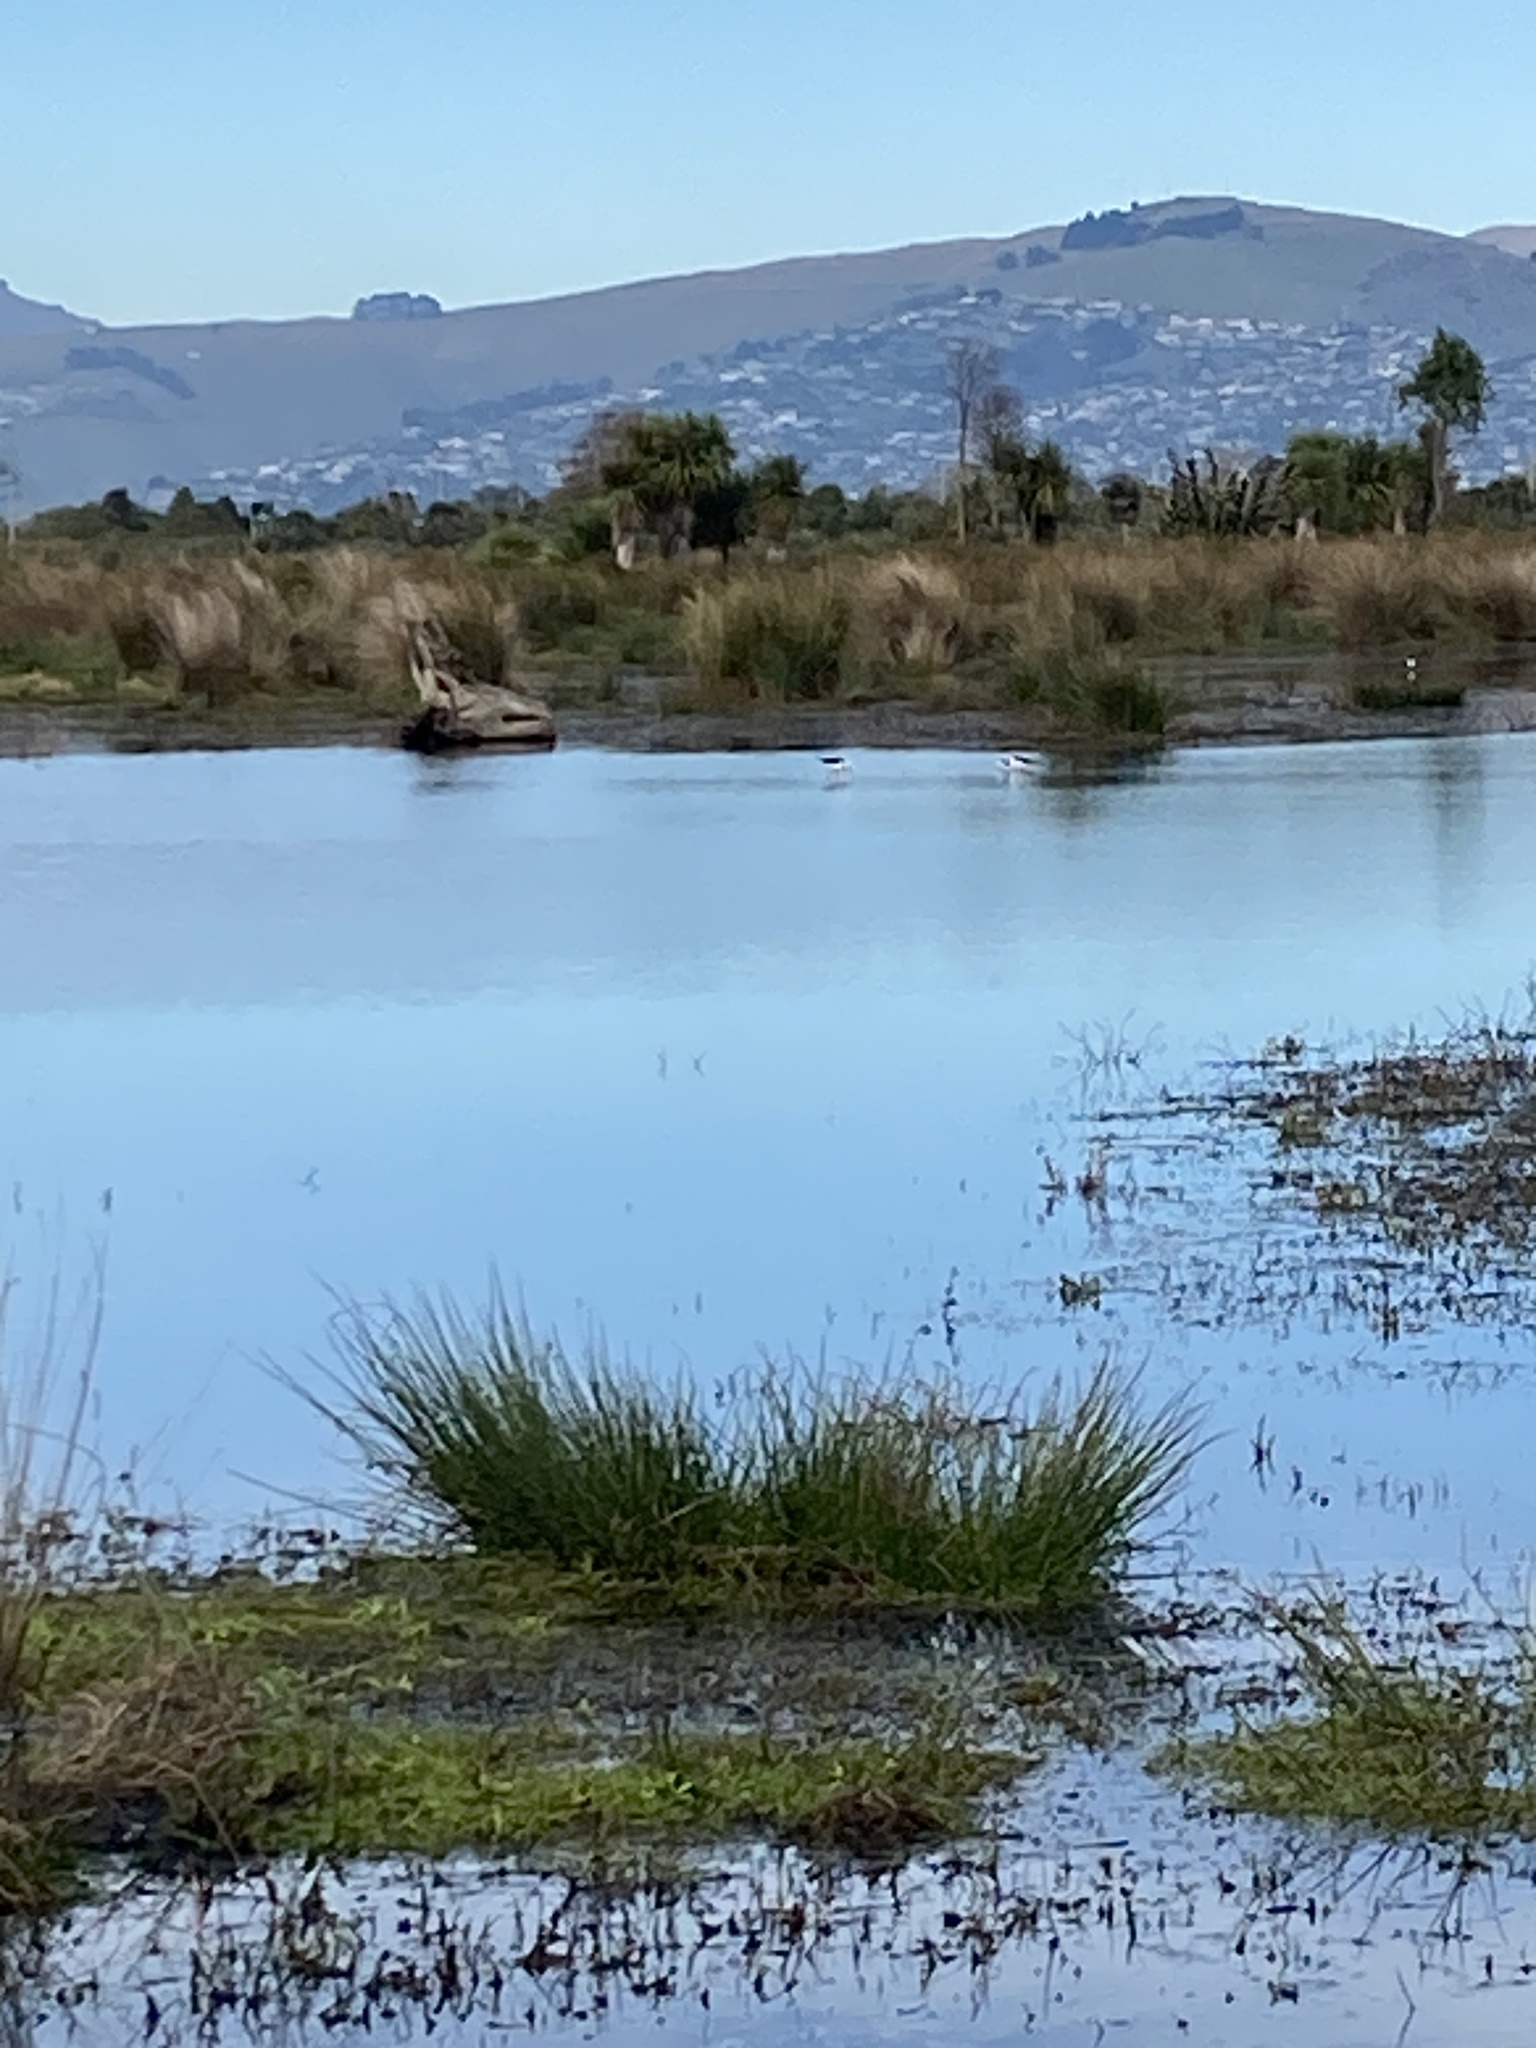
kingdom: Animalia
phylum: Chordata
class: Aves
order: Charadriiformes
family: Recurvirostridae
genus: Himantopus
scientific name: Himantopus leucocephalus
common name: White-headed stilt
